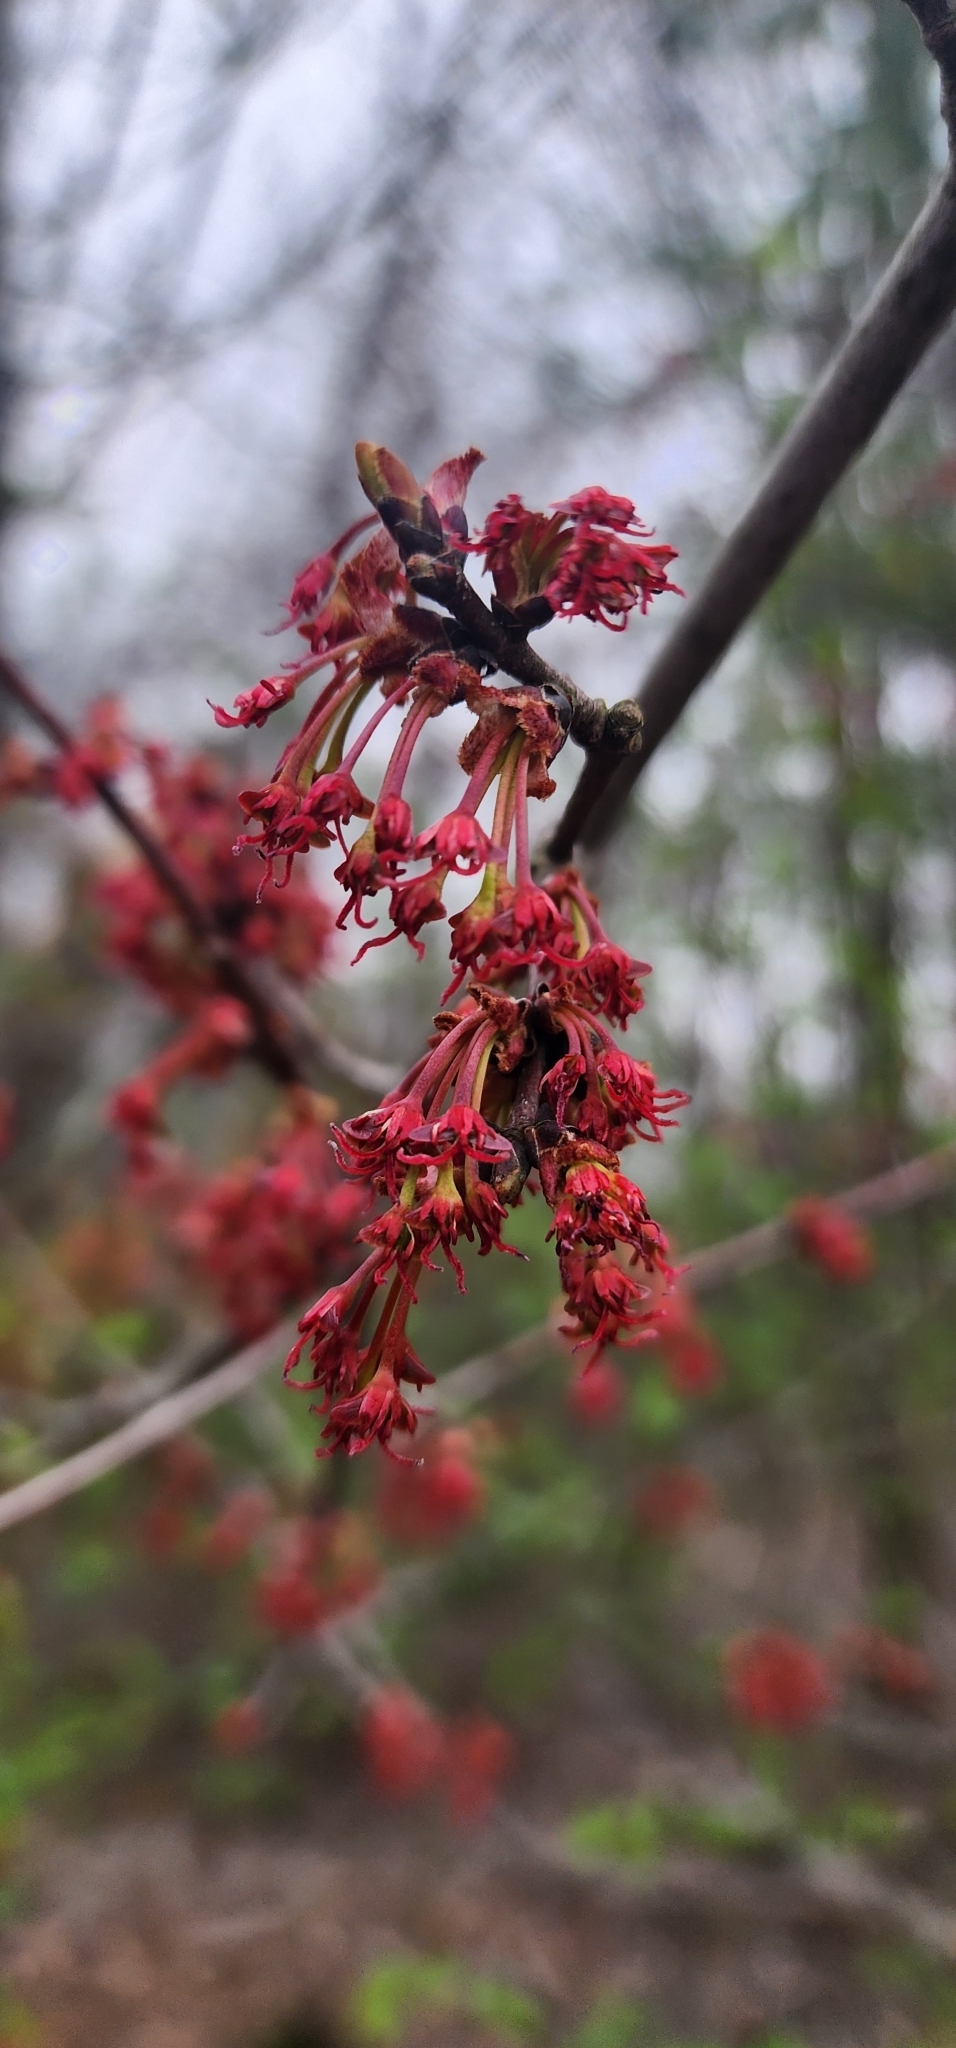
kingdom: Plantae
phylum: Tracheophyta
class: Magnoliopsida
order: Sapindales
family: Sapindaceae
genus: Acer
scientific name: Acer rubrum
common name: Red maple
